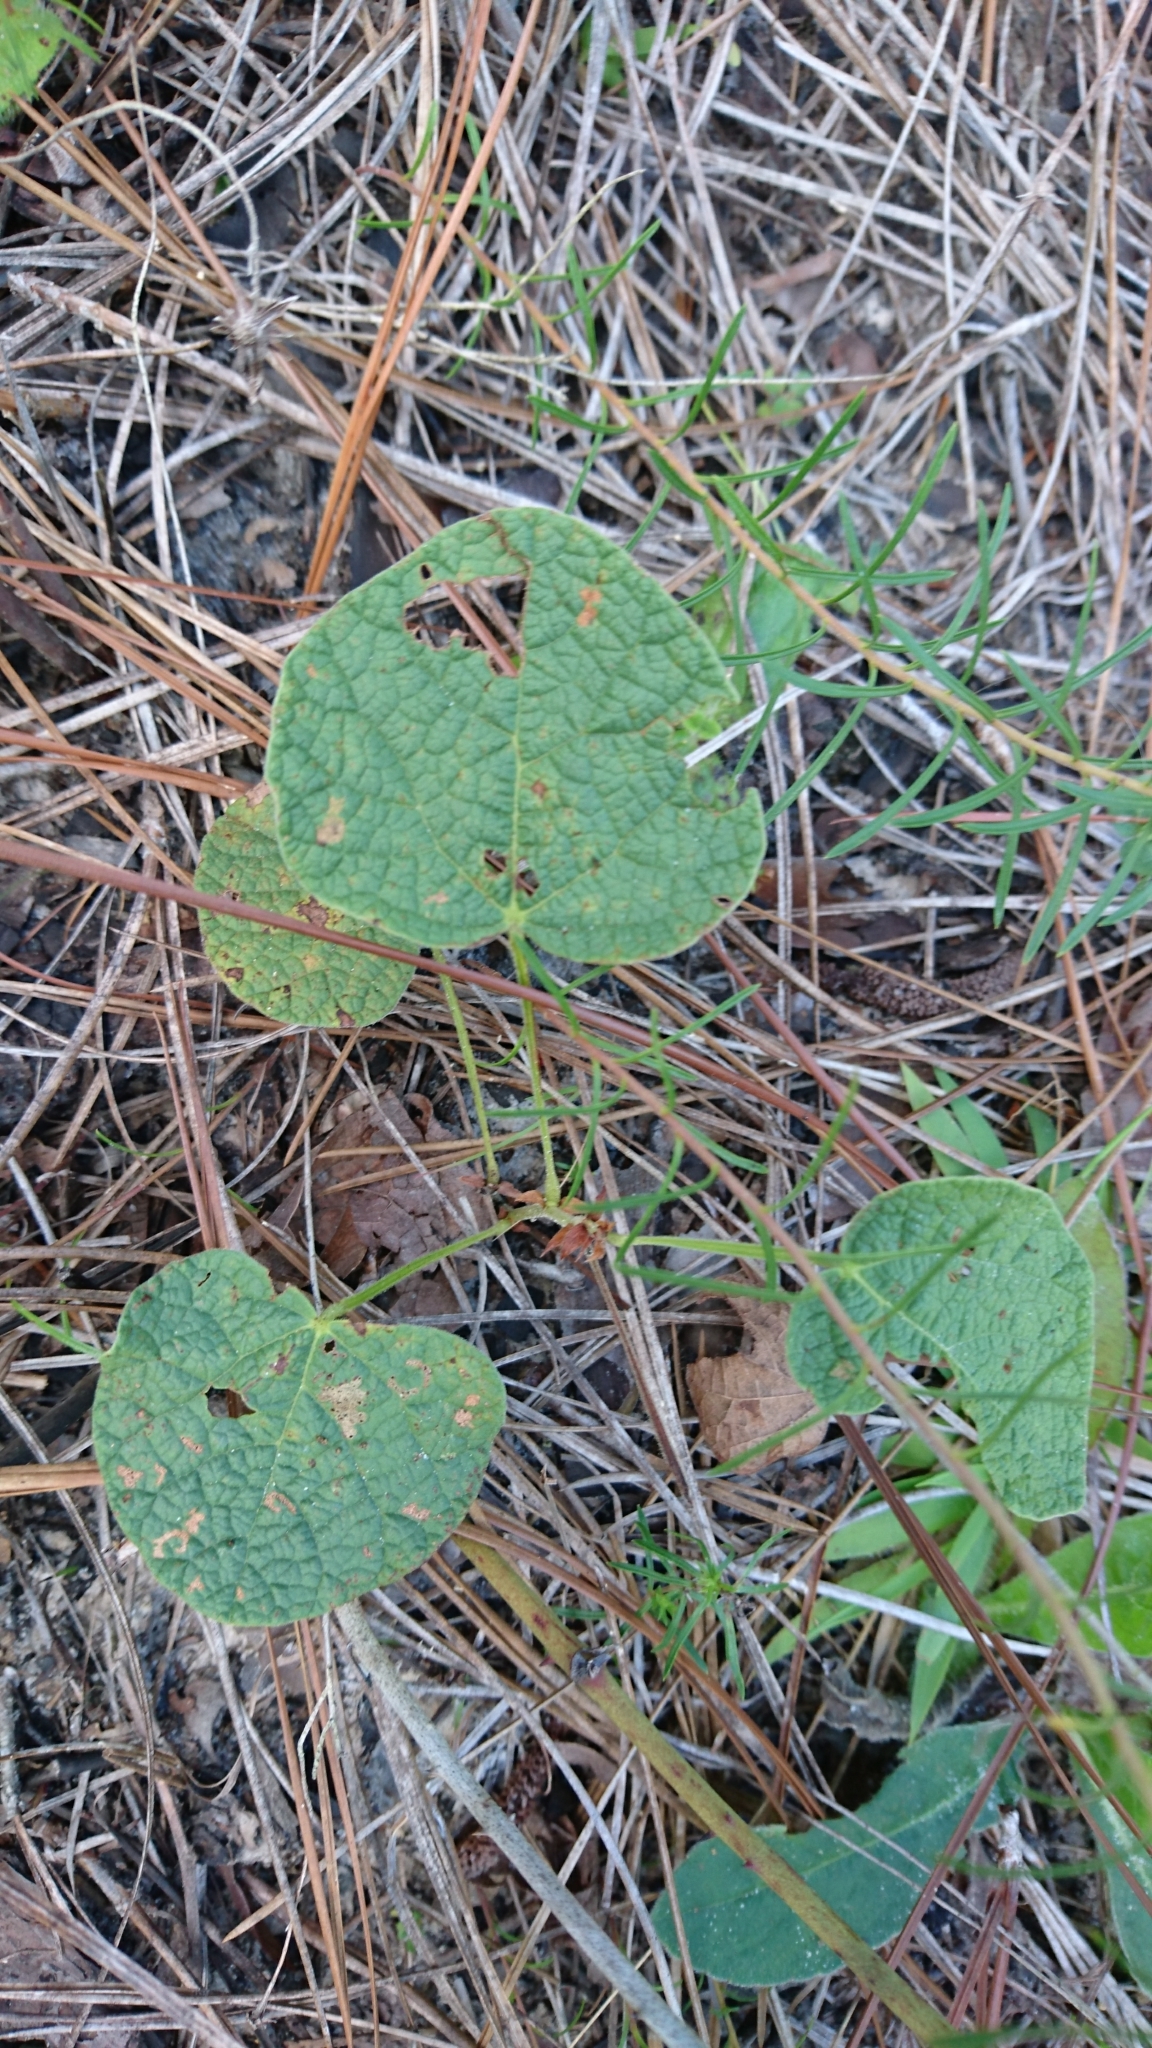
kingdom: Plantae
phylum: Tracheophyta
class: Magnoliopsida
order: Fabales
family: Fabaceae
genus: Rhynchosia
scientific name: Rhynchosia reniformis
